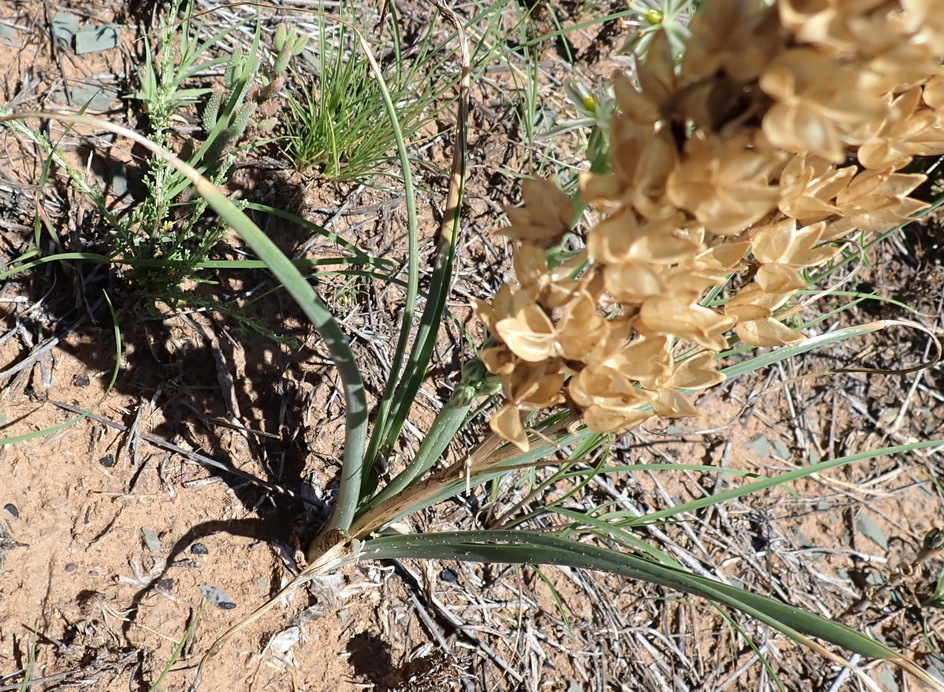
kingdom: Plantae
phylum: Tracheophyta
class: Liliopsida
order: Asparagales
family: Asparagaceae
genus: Albuca
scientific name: Albuca virens
